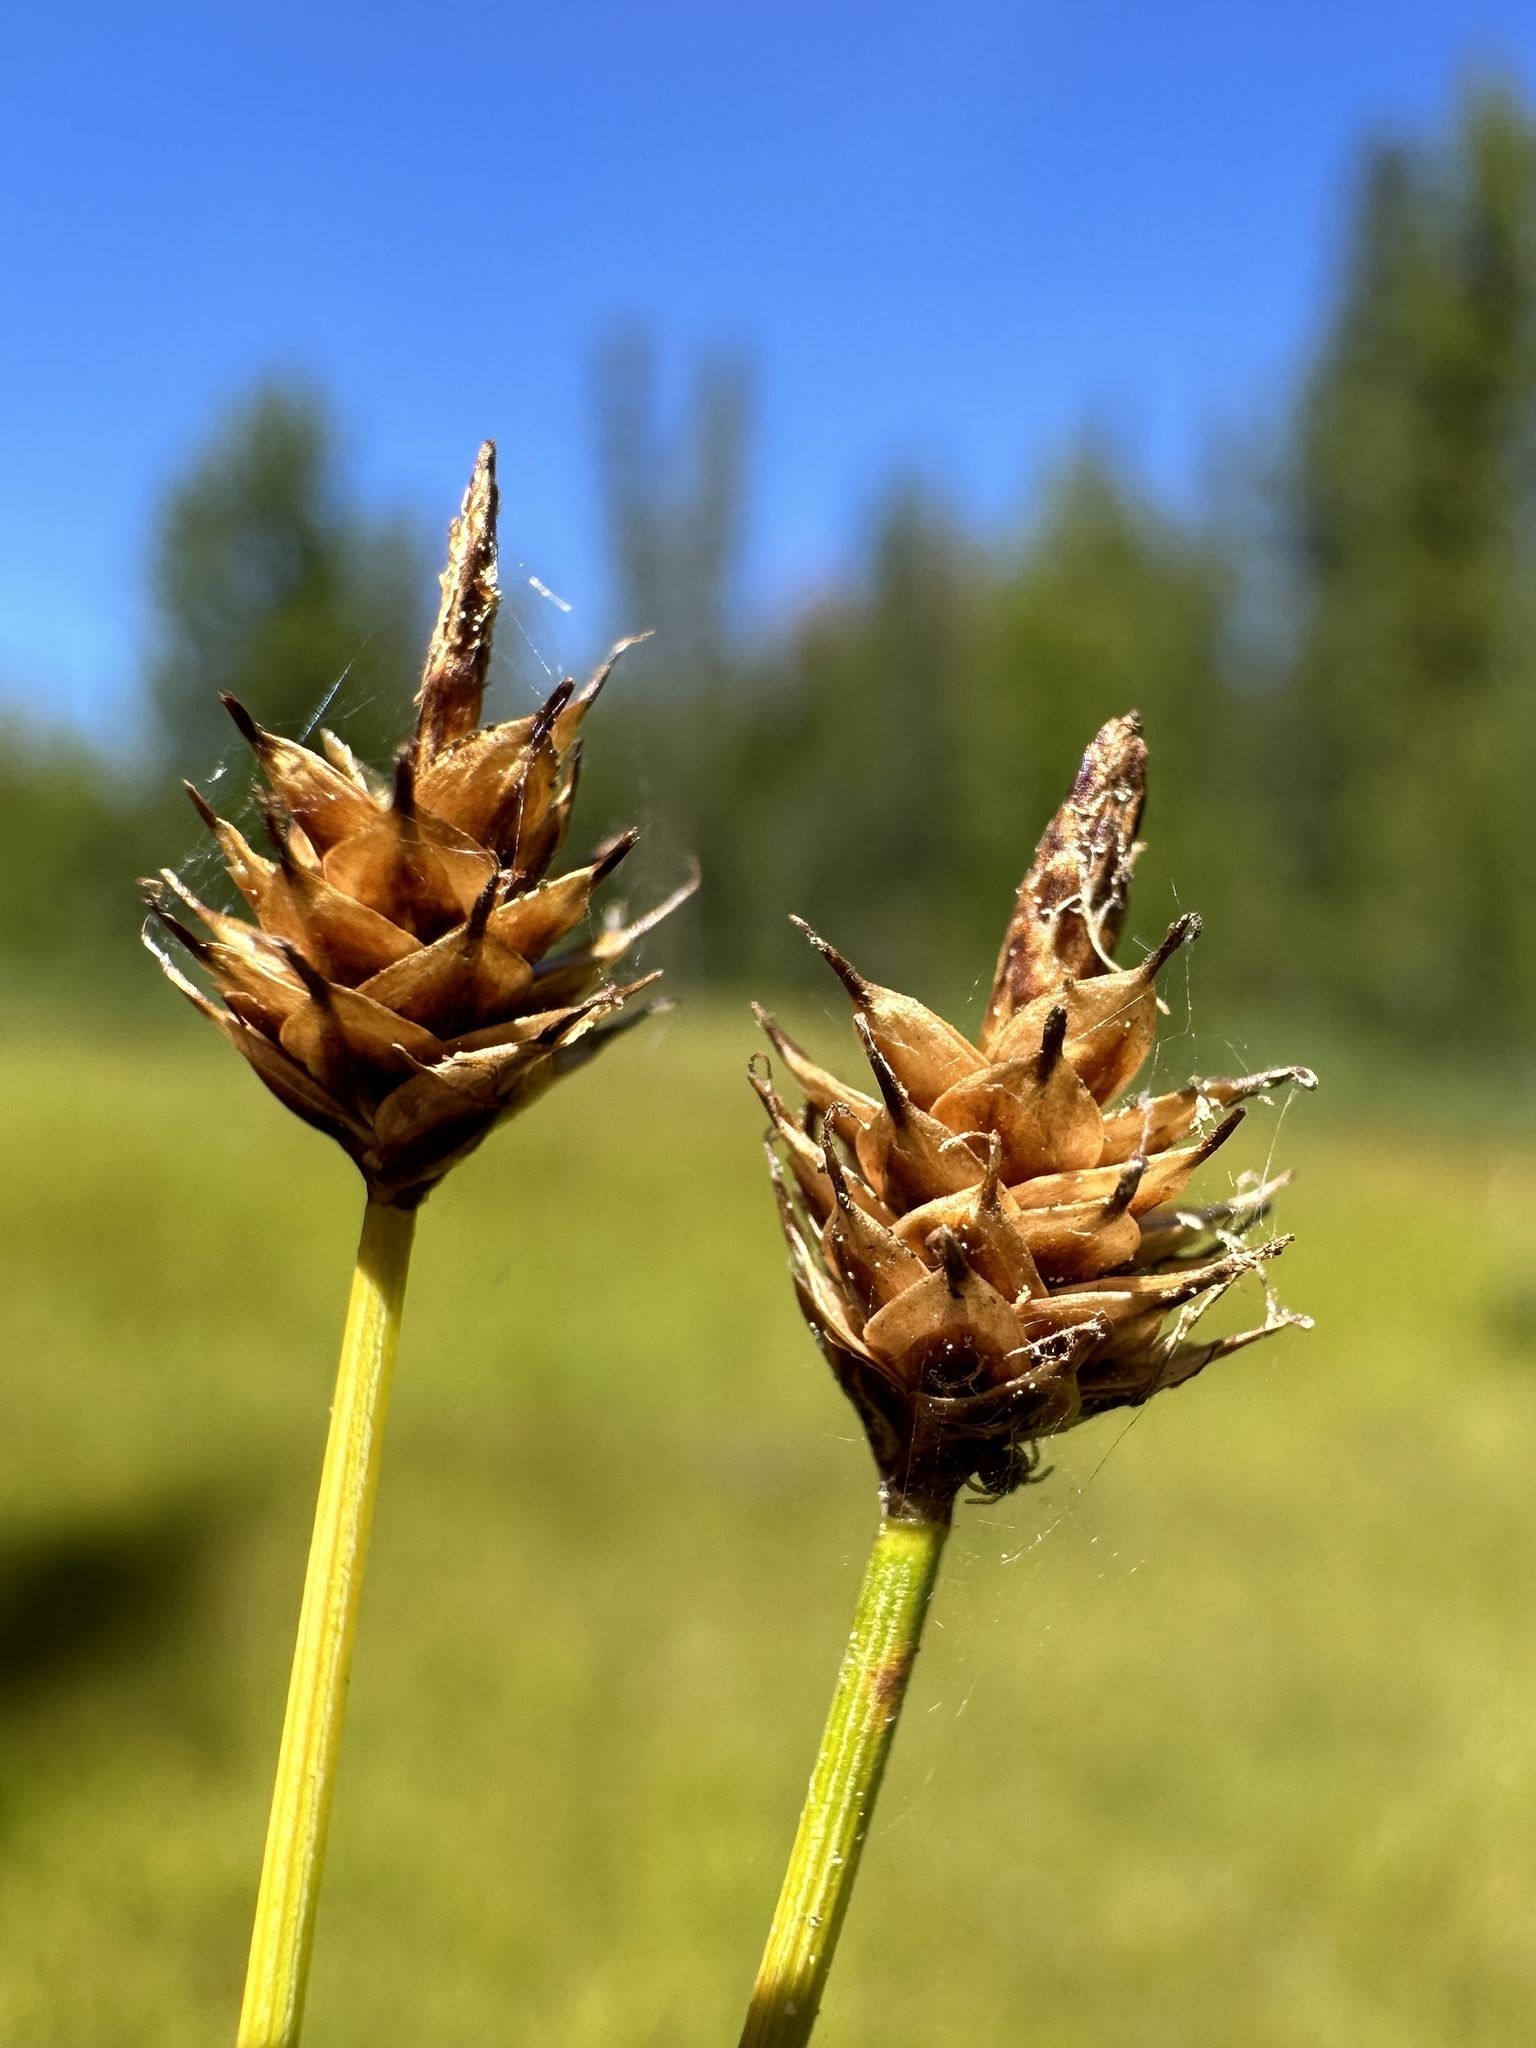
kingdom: Plantae
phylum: Tracheophyta
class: Liliopsida
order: Poales
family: Cyperaceae
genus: Carex
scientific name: Carex capitata
